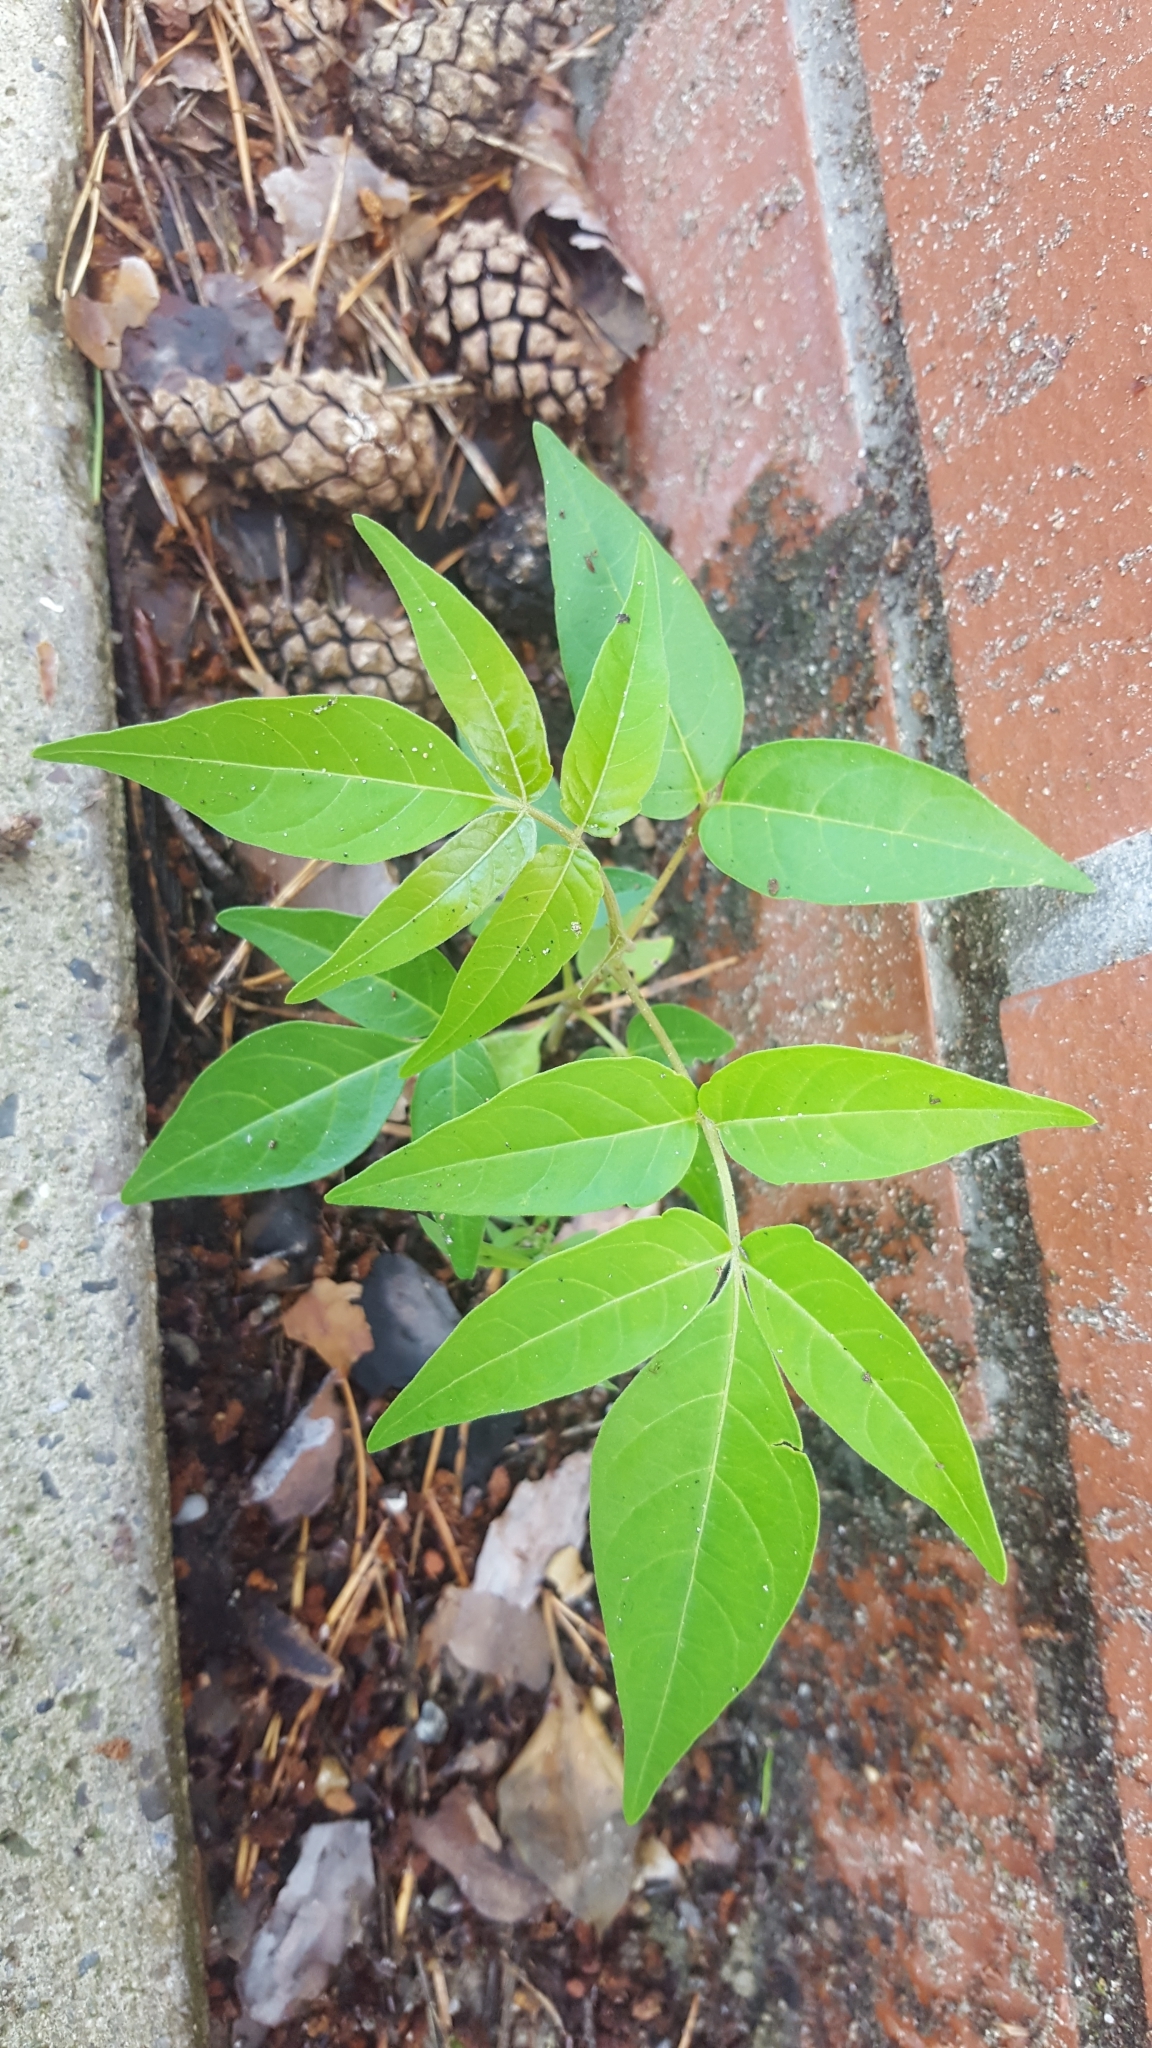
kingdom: Plantae
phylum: Tracheophyta
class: Magnoliopsida
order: Sapindales
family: Simaroubaceae
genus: Ailanthus
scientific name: Ailanthus altissima
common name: Tree-of-heaven
